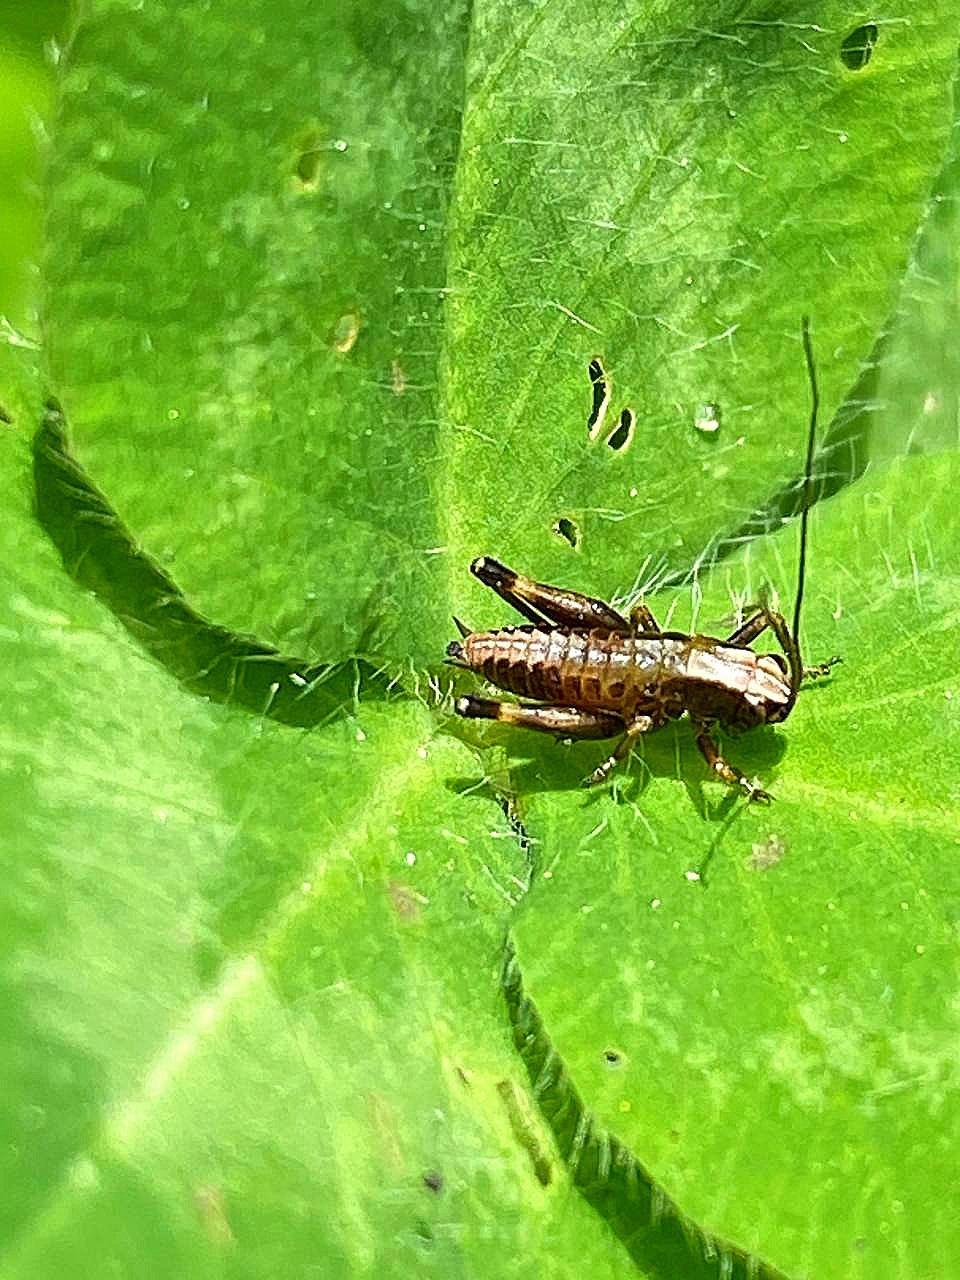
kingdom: Animalia
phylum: Arthropoda
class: Insecta
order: Orthoptera
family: Tettigoniidae
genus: Pholidoptera
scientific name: Pholidoptera griseoaptera
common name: Dark bush-cricket
